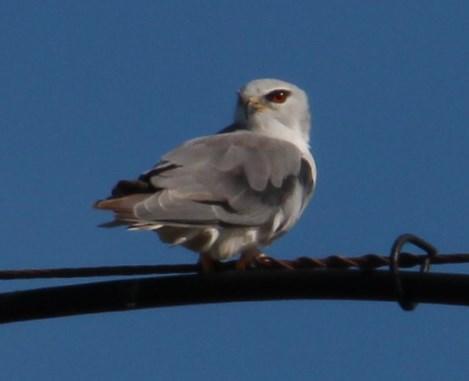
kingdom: Animalia
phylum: Chordata
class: Aves
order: Accipitriformes
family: Accipitridae
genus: Elanus
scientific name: Elanus caeruleus
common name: Black-winged kite
